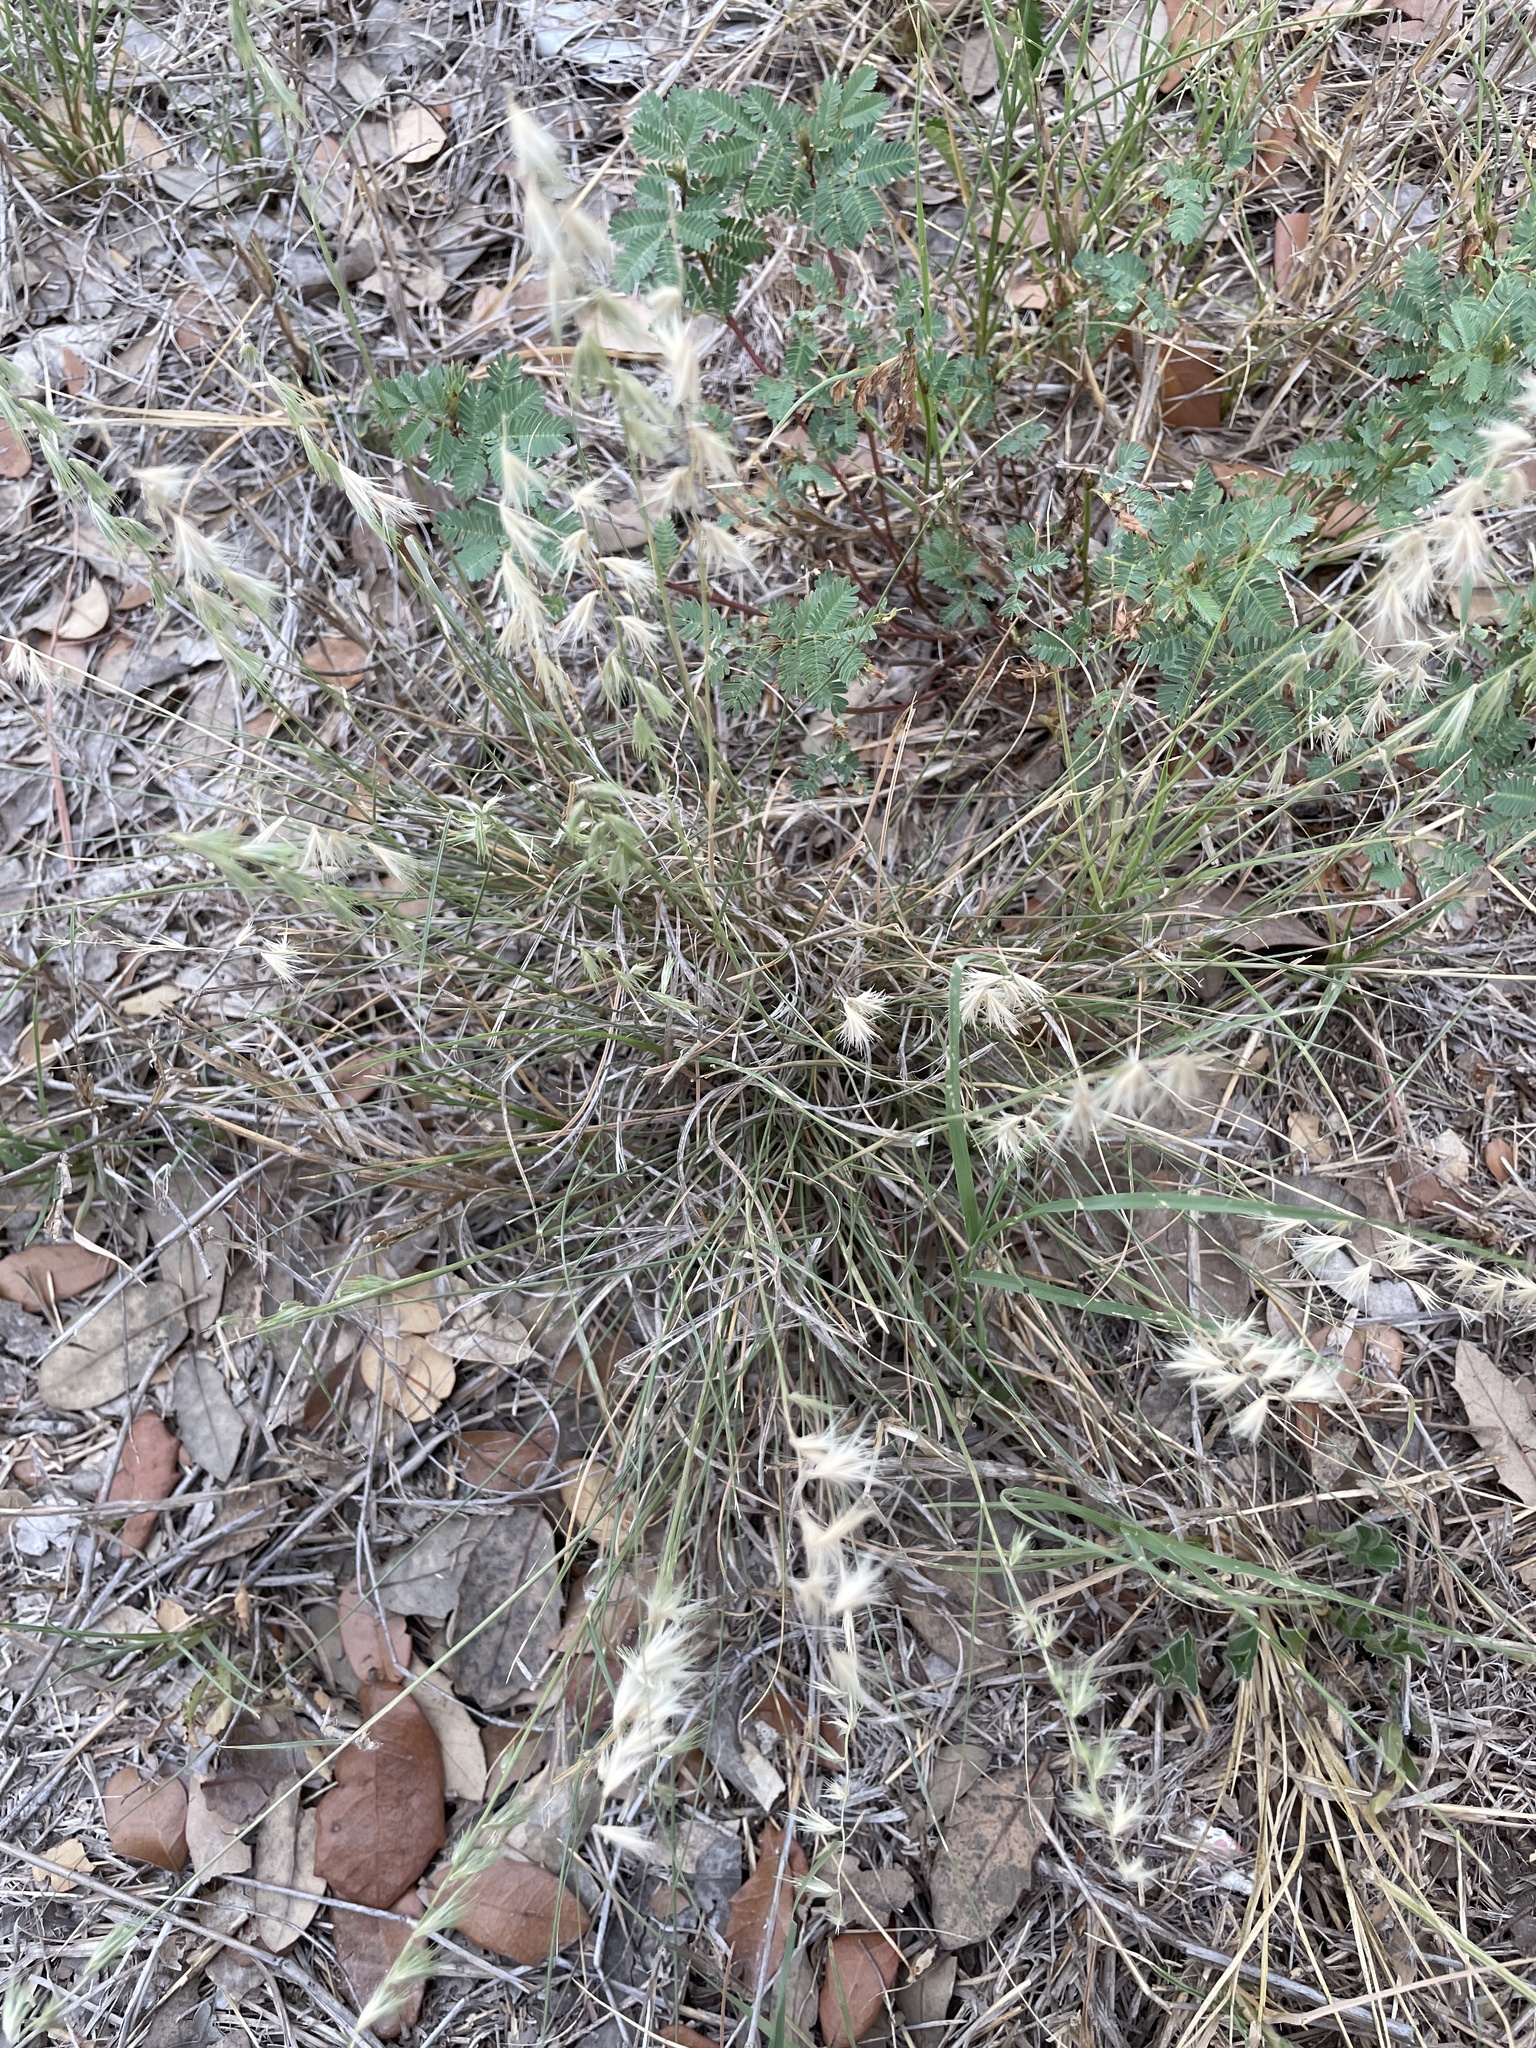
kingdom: Plantae
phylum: Tracheophyta
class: Liliopsida
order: Poales
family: Poaceae
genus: Bouteloua
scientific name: Bouteloua rigidiseta
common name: Texas grama
